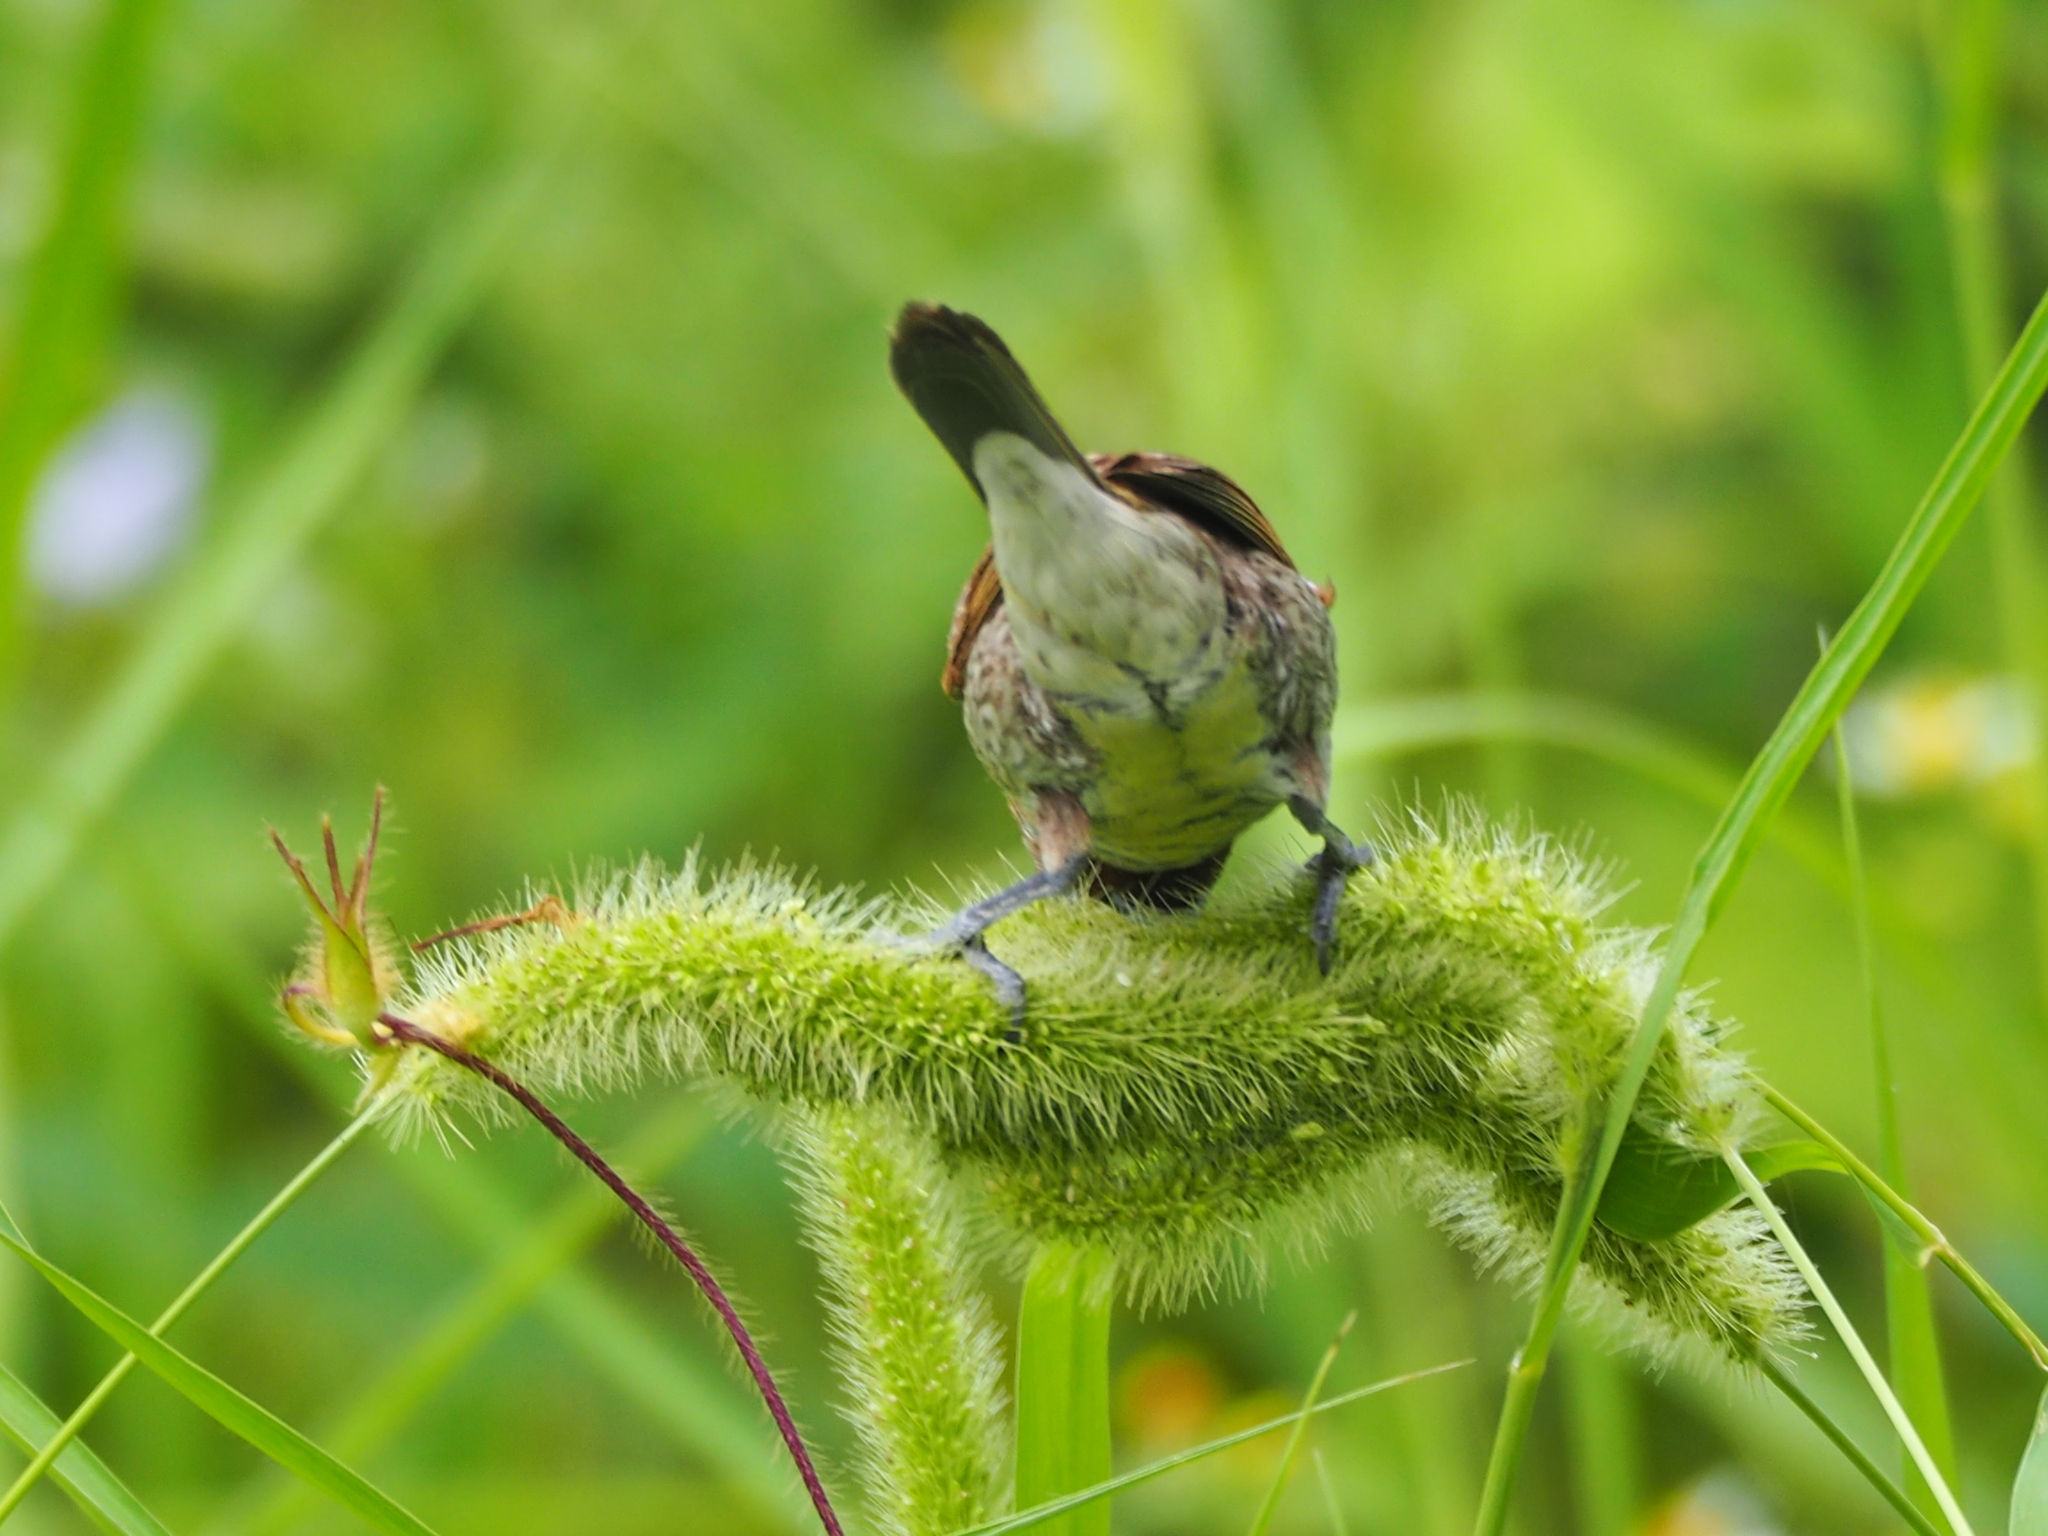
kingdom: Animalia
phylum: Chordata
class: Aves
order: Passeriformes
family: Estrildidae
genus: Lonchura
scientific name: Lonchura punctulata
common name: Scaly-breasted munia
